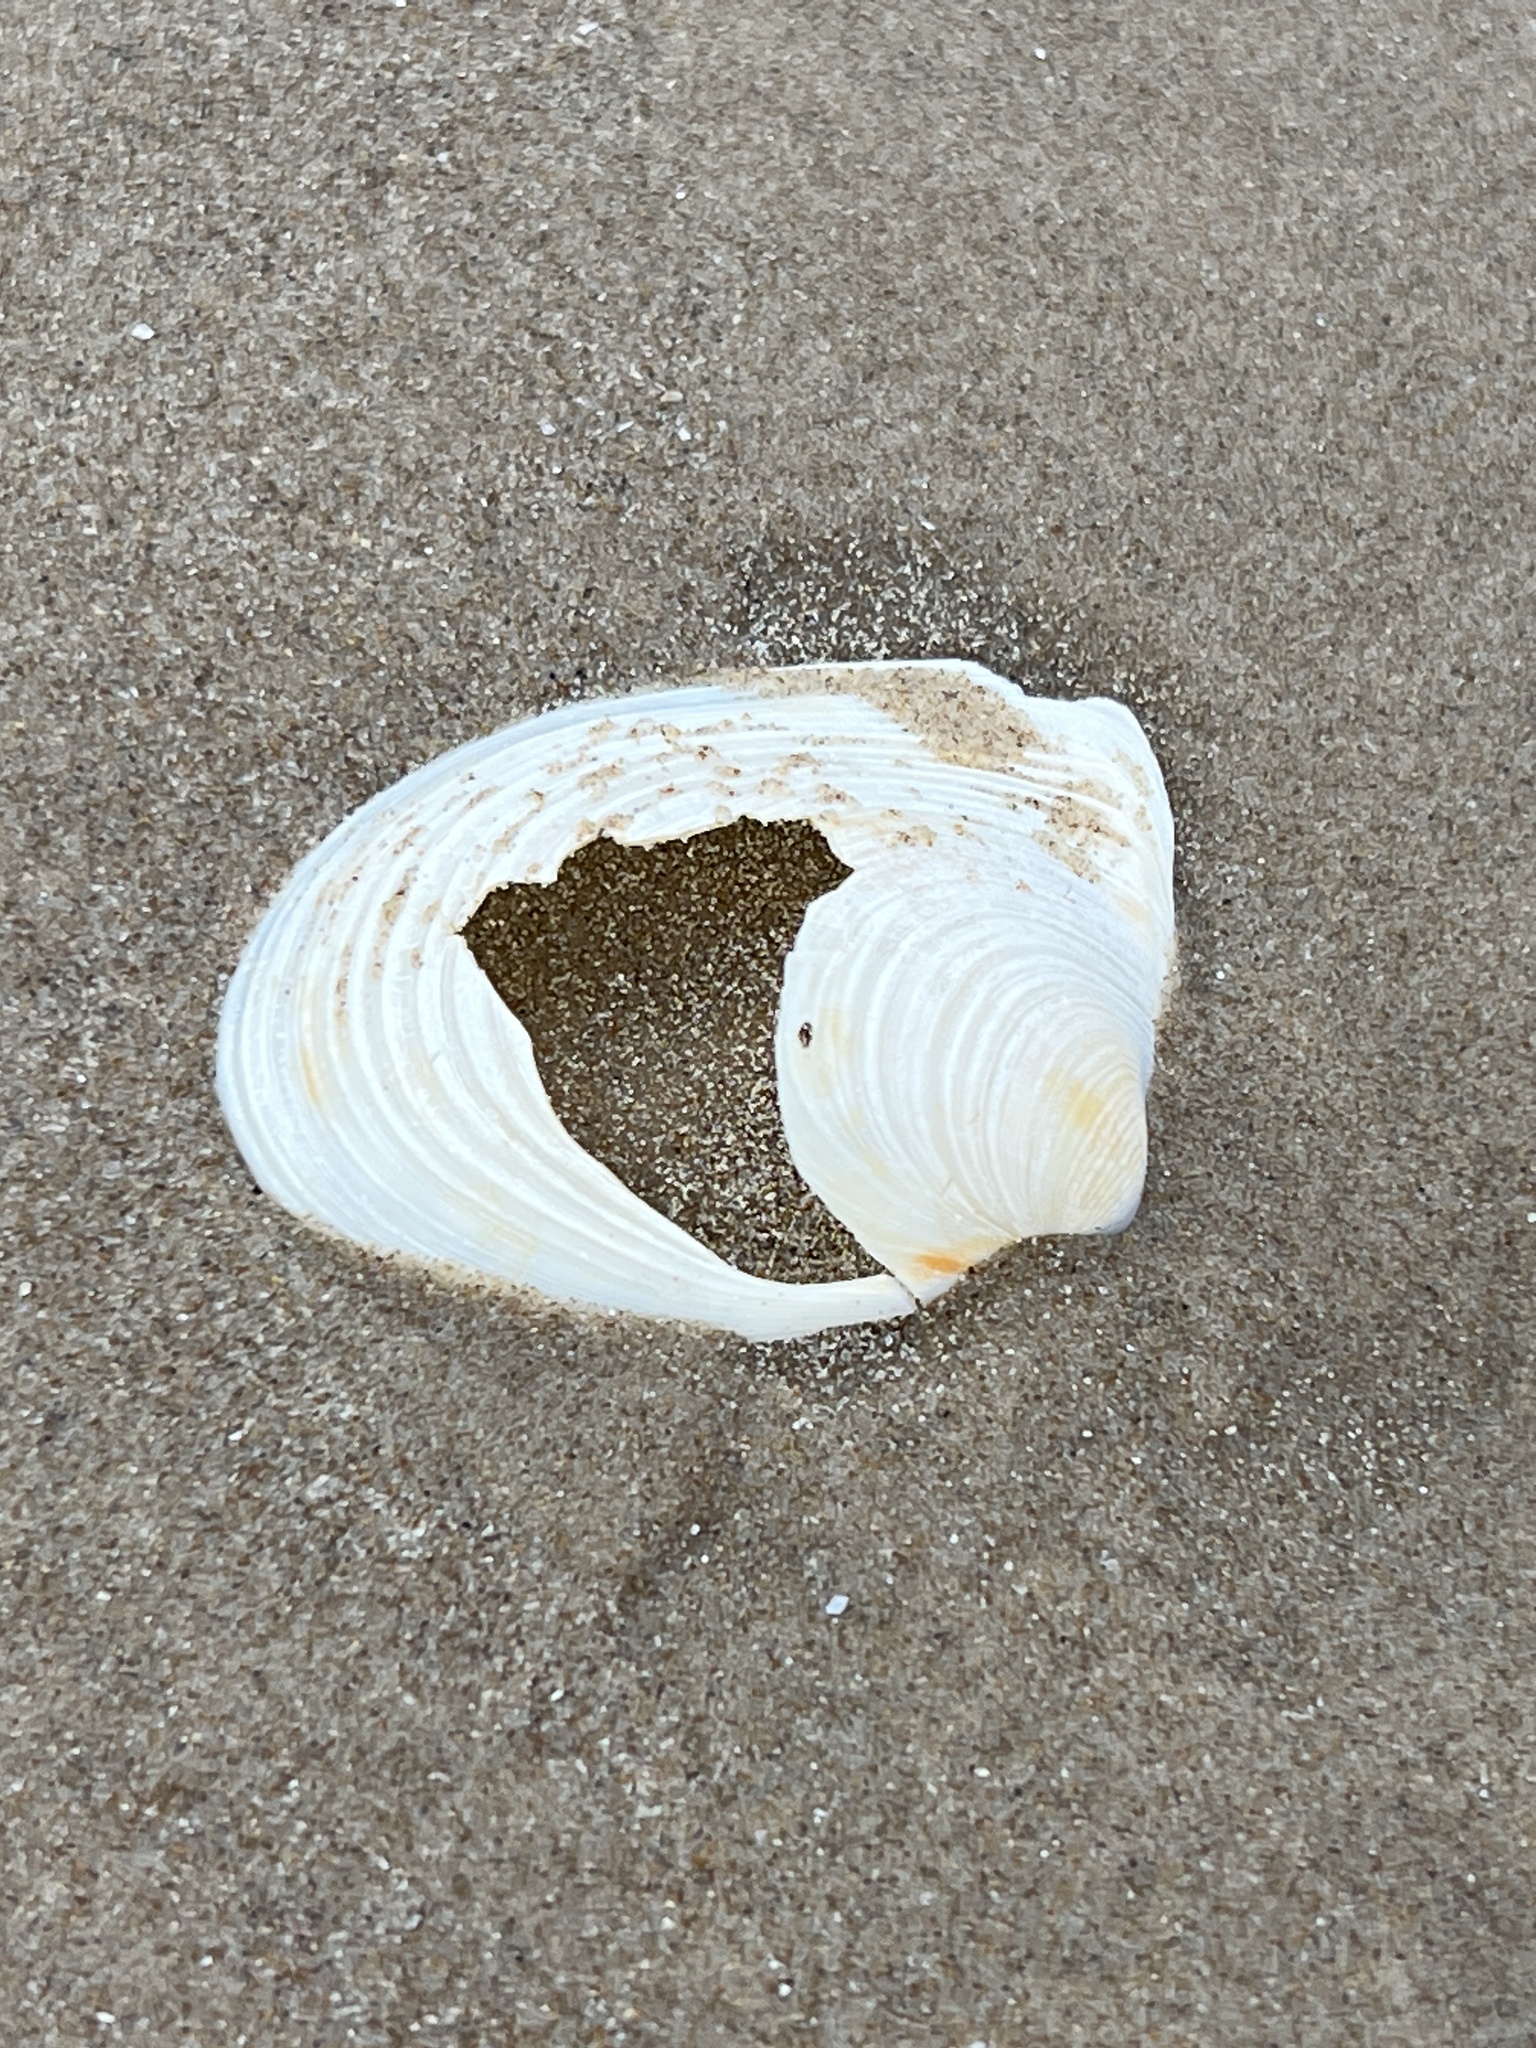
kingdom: Animalia
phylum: Mollusca
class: Bivalvia
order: Venerida
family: Anatinellidae
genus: Raeta
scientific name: Raeta plicatella
